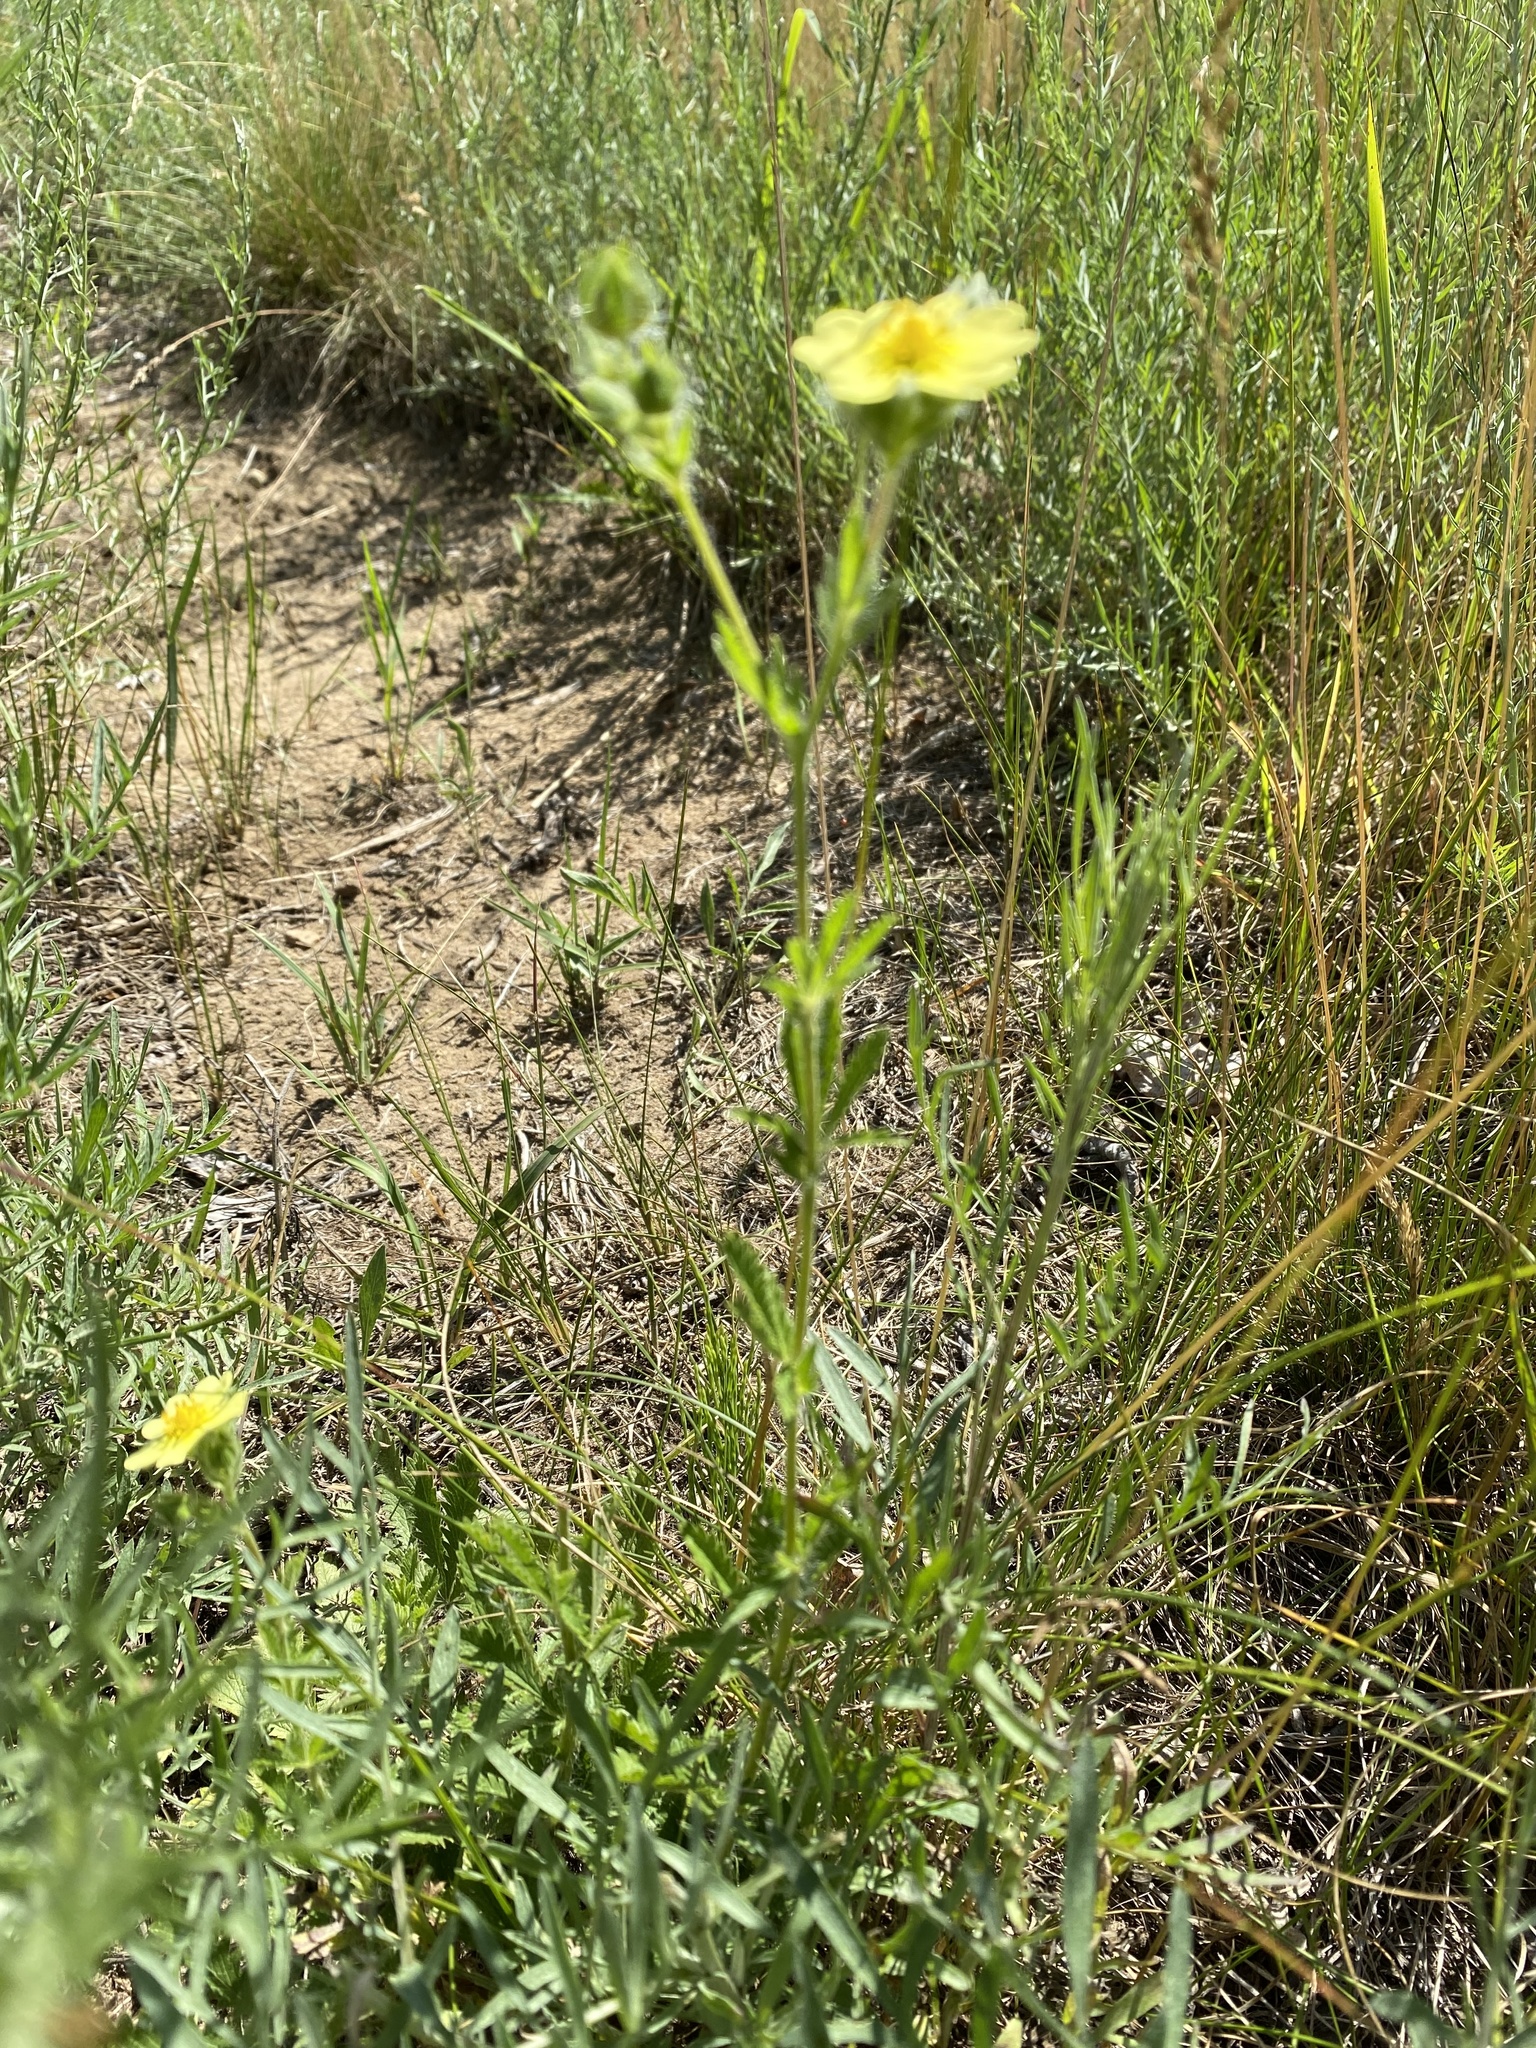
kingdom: Plantae
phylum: Tracheophyta
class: Magnoliopsida
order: Rosales
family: Rosaceae
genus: Potentilla
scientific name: Potentilla recta
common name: Sulphur cinquefoil
